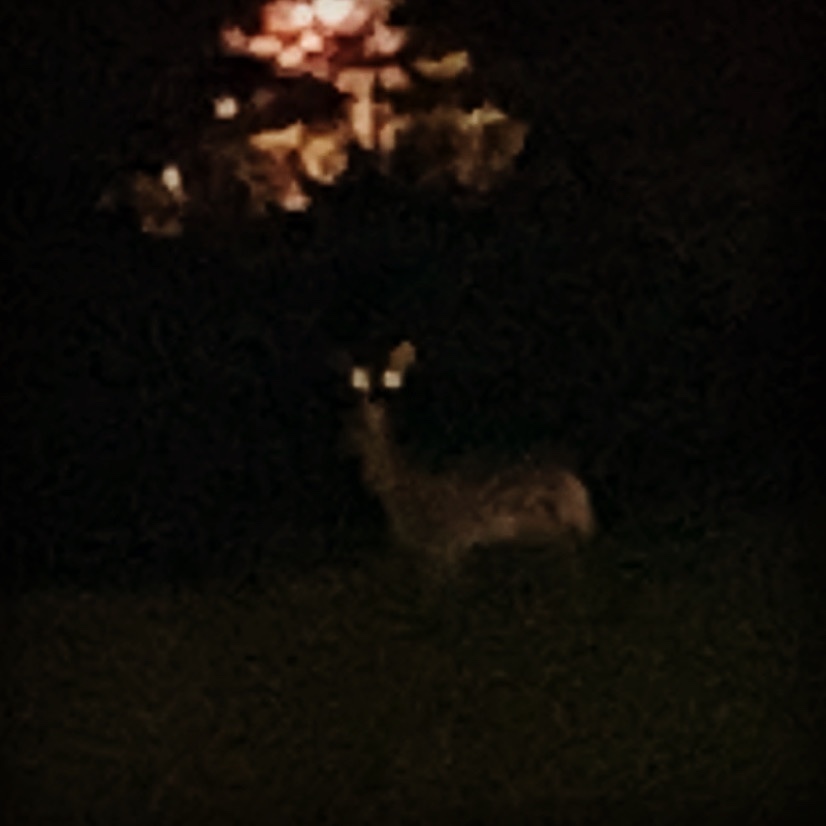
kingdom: Animalia
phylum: Chordata
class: Mammalia
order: Artiodactyla
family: Cervidae
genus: Odocoileus
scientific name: Odocoileus virginianus
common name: White-tailed deer
